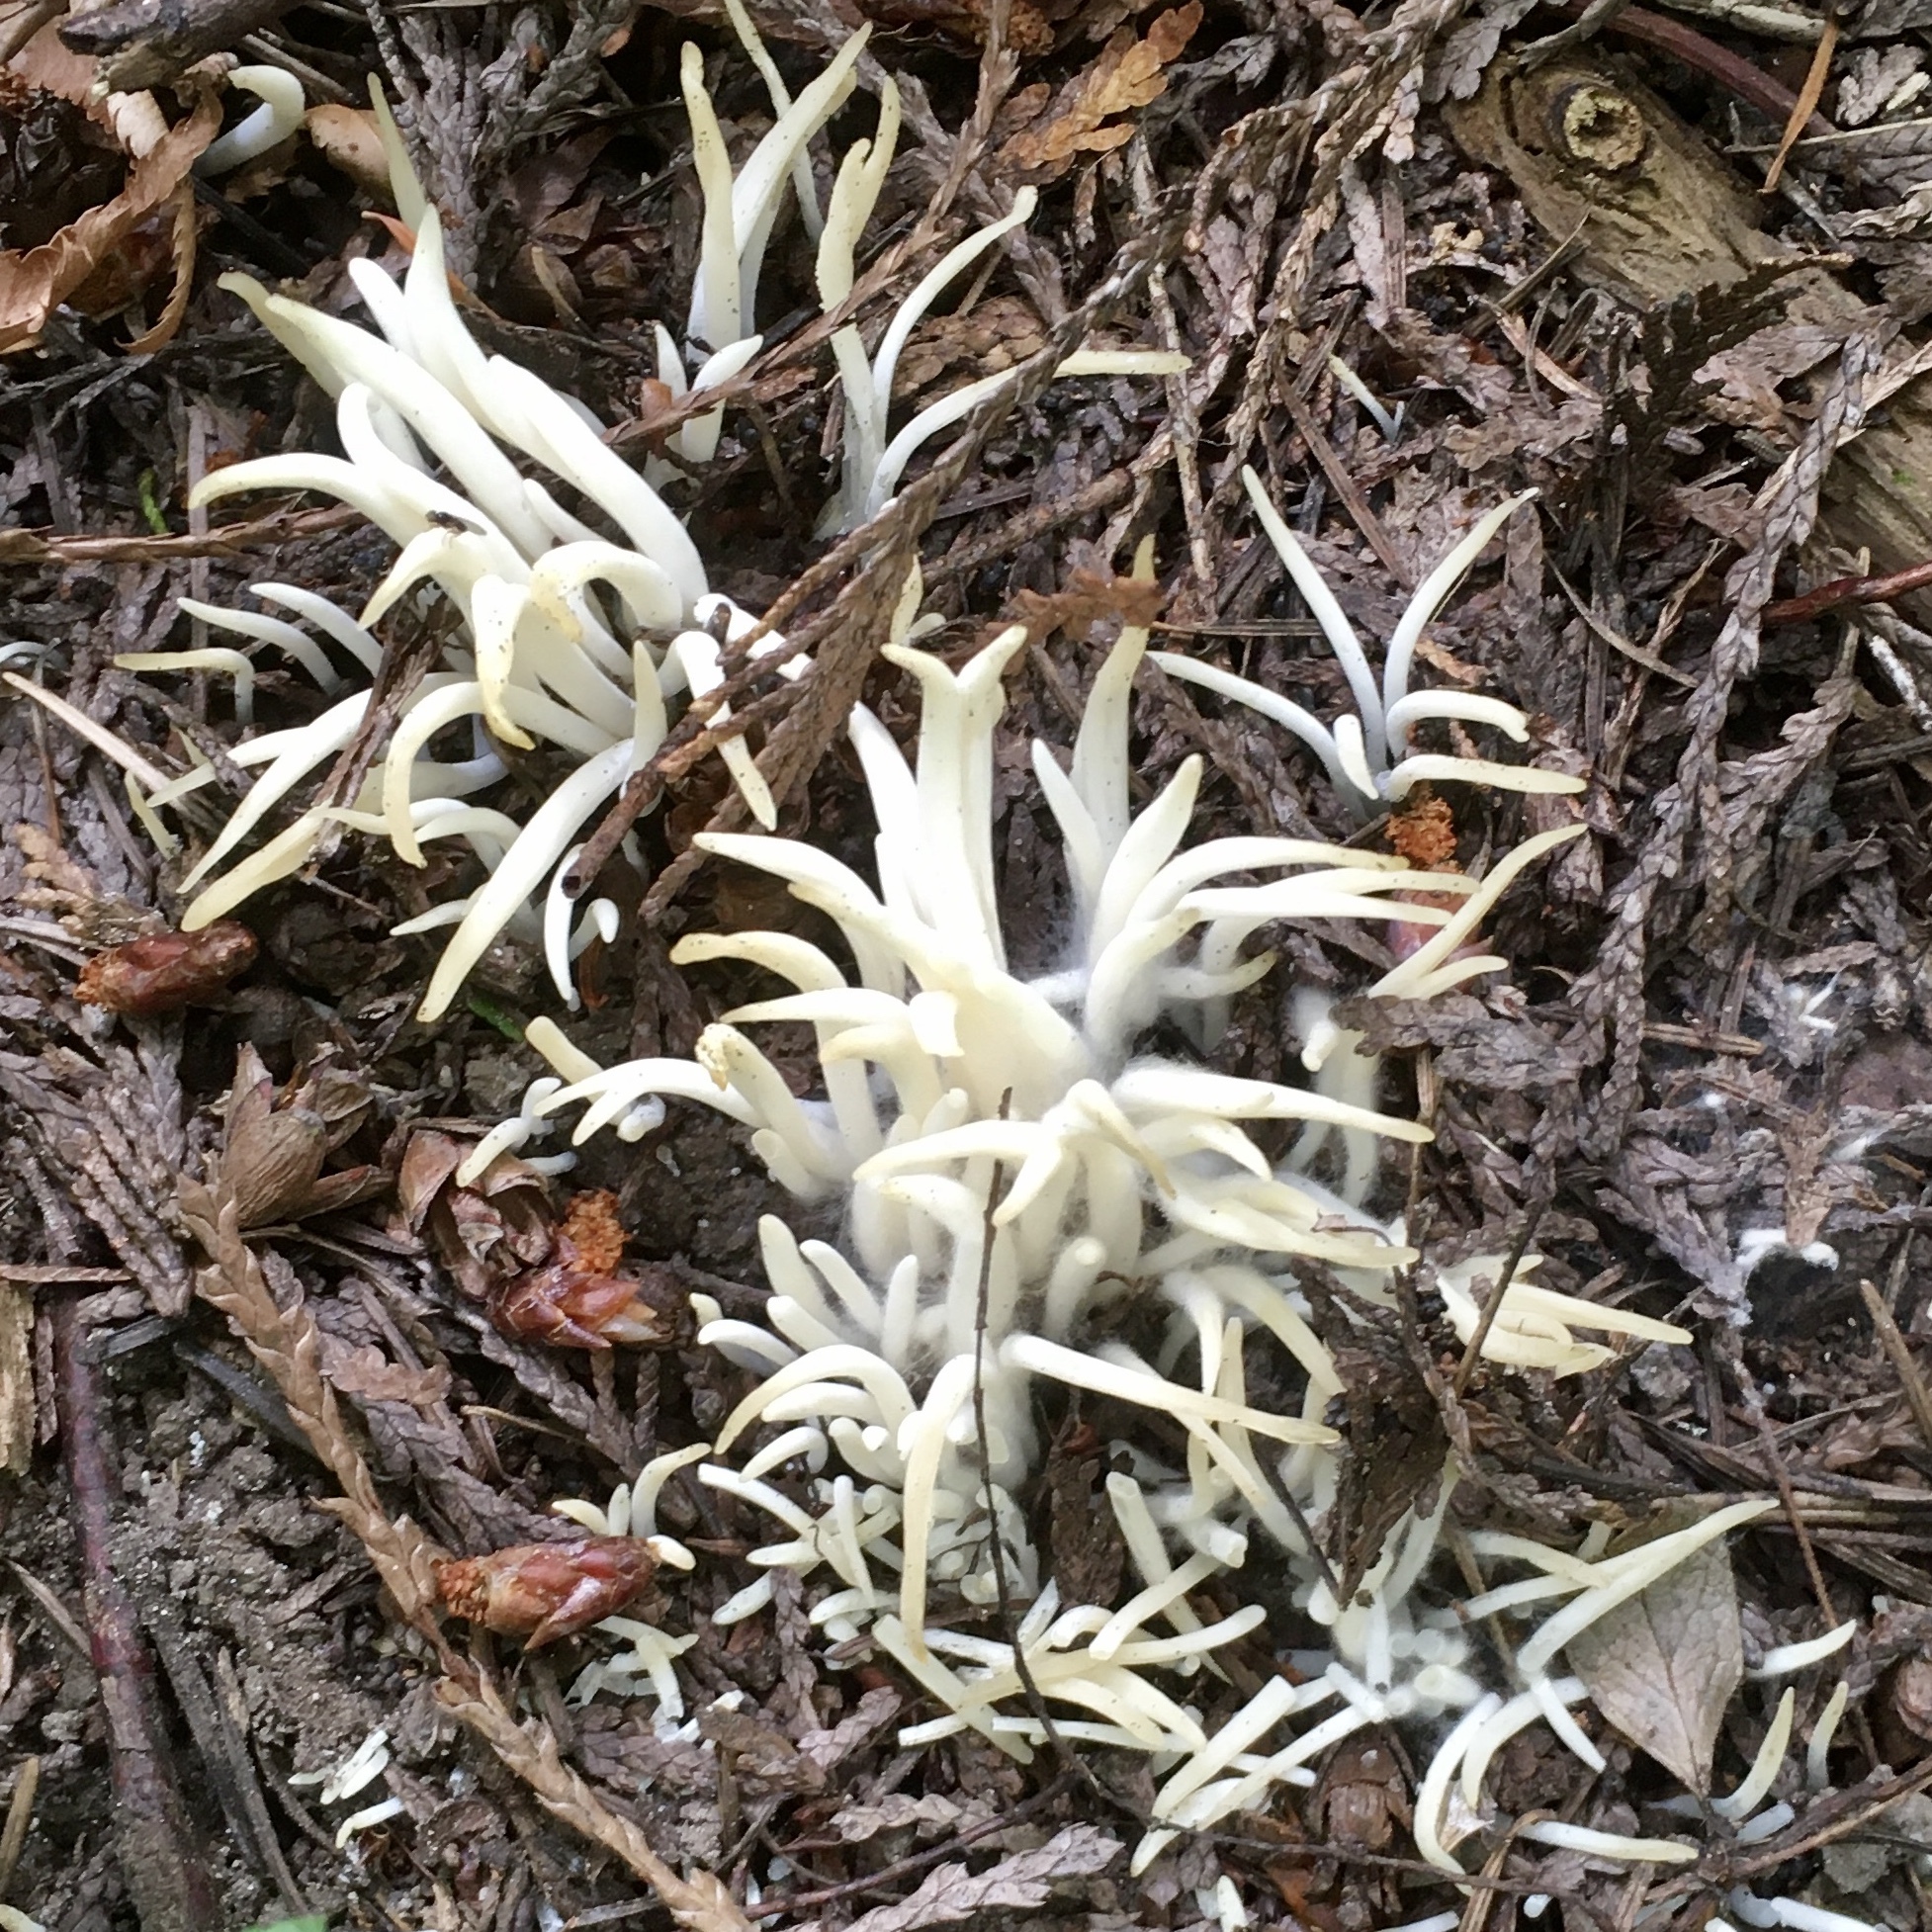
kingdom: Fungi
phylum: Basidiomycota
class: Agaricomycetes
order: Agaricales
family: Clavariaceae
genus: Clavaria
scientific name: Clavaria fragilis
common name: White spindles
